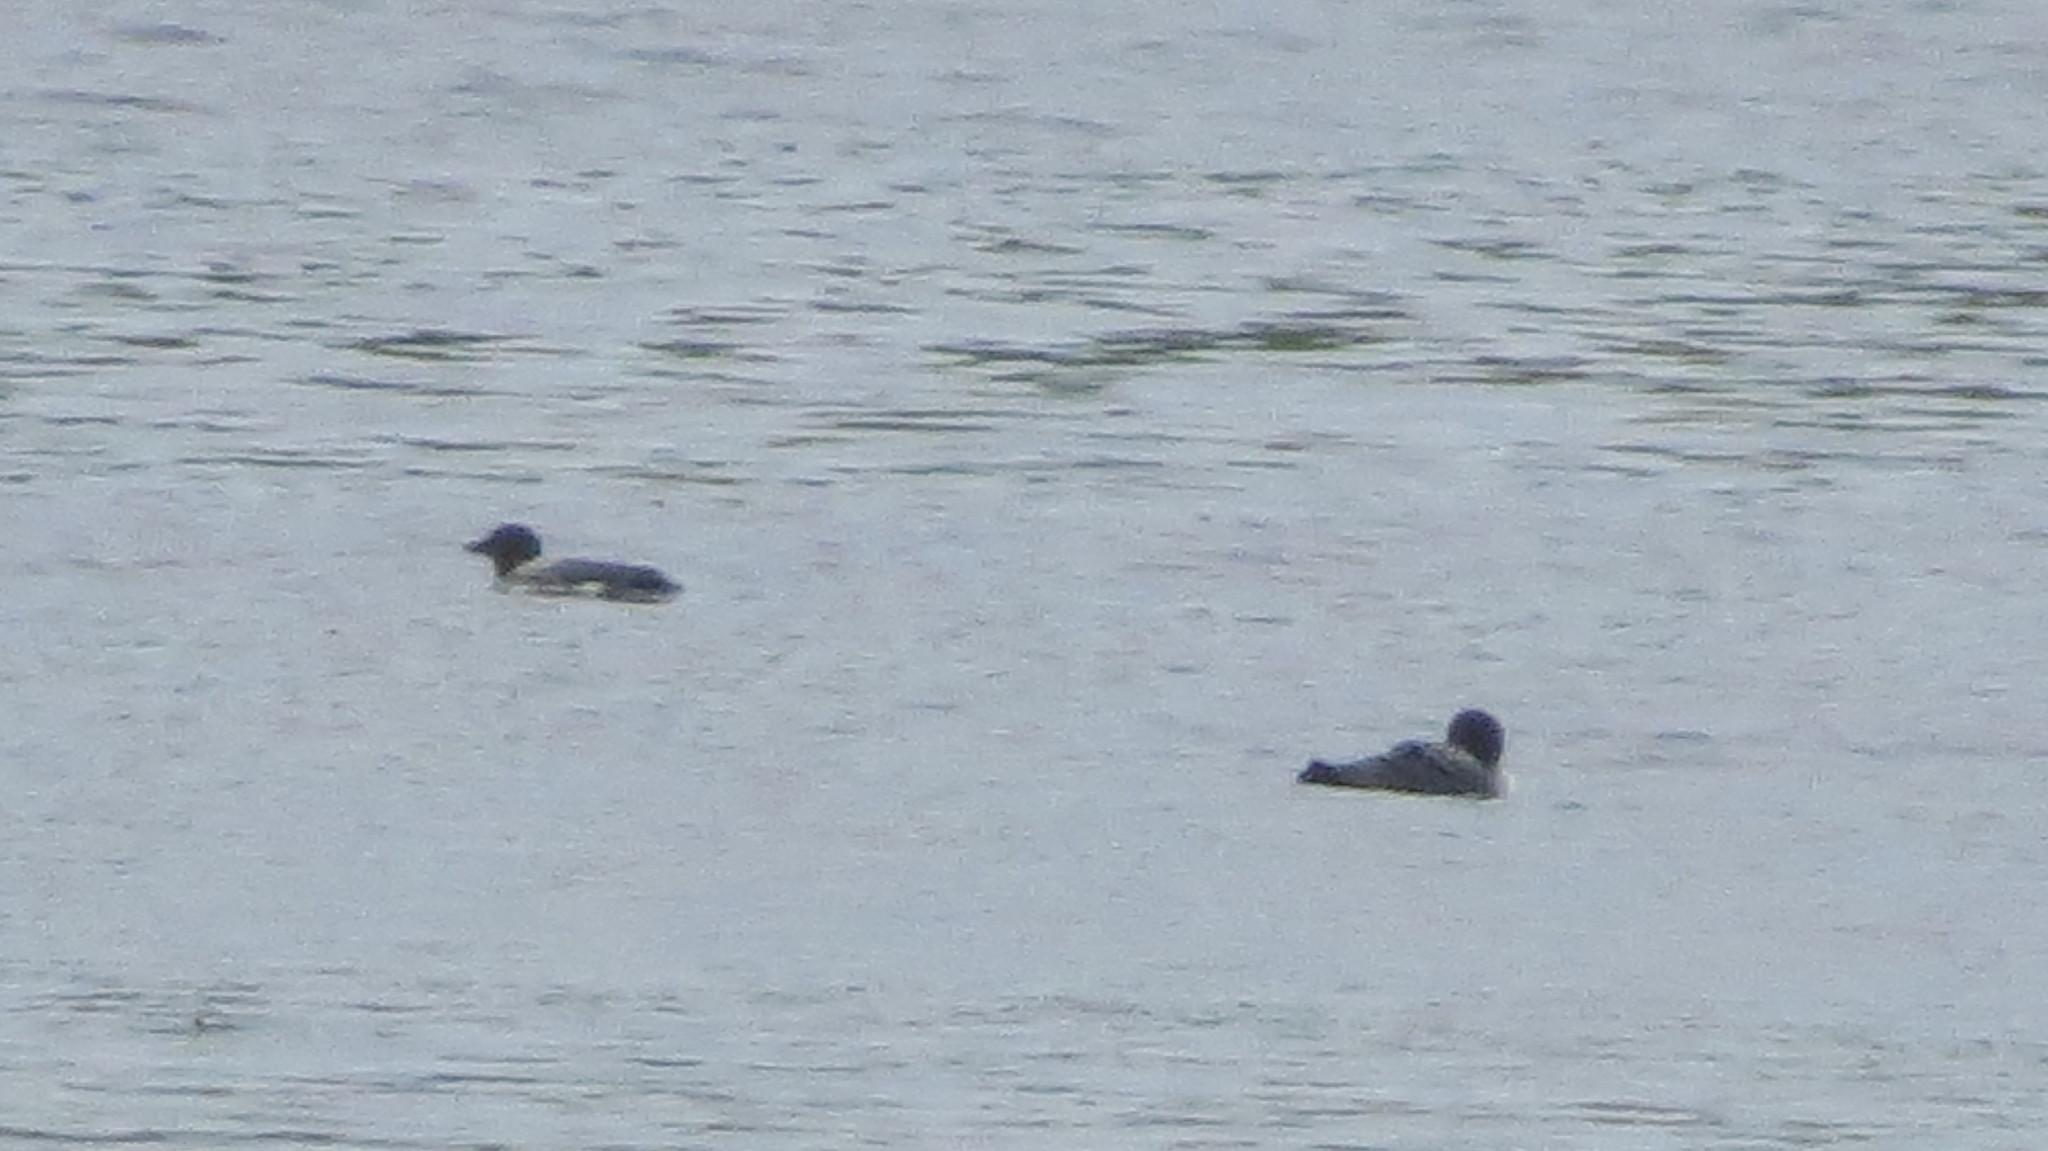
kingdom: Animalia
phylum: Chordata
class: Aves
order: Gaviiformes
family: Gaviidae
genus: Gavia
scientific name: Gavia immer
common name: Common loon
